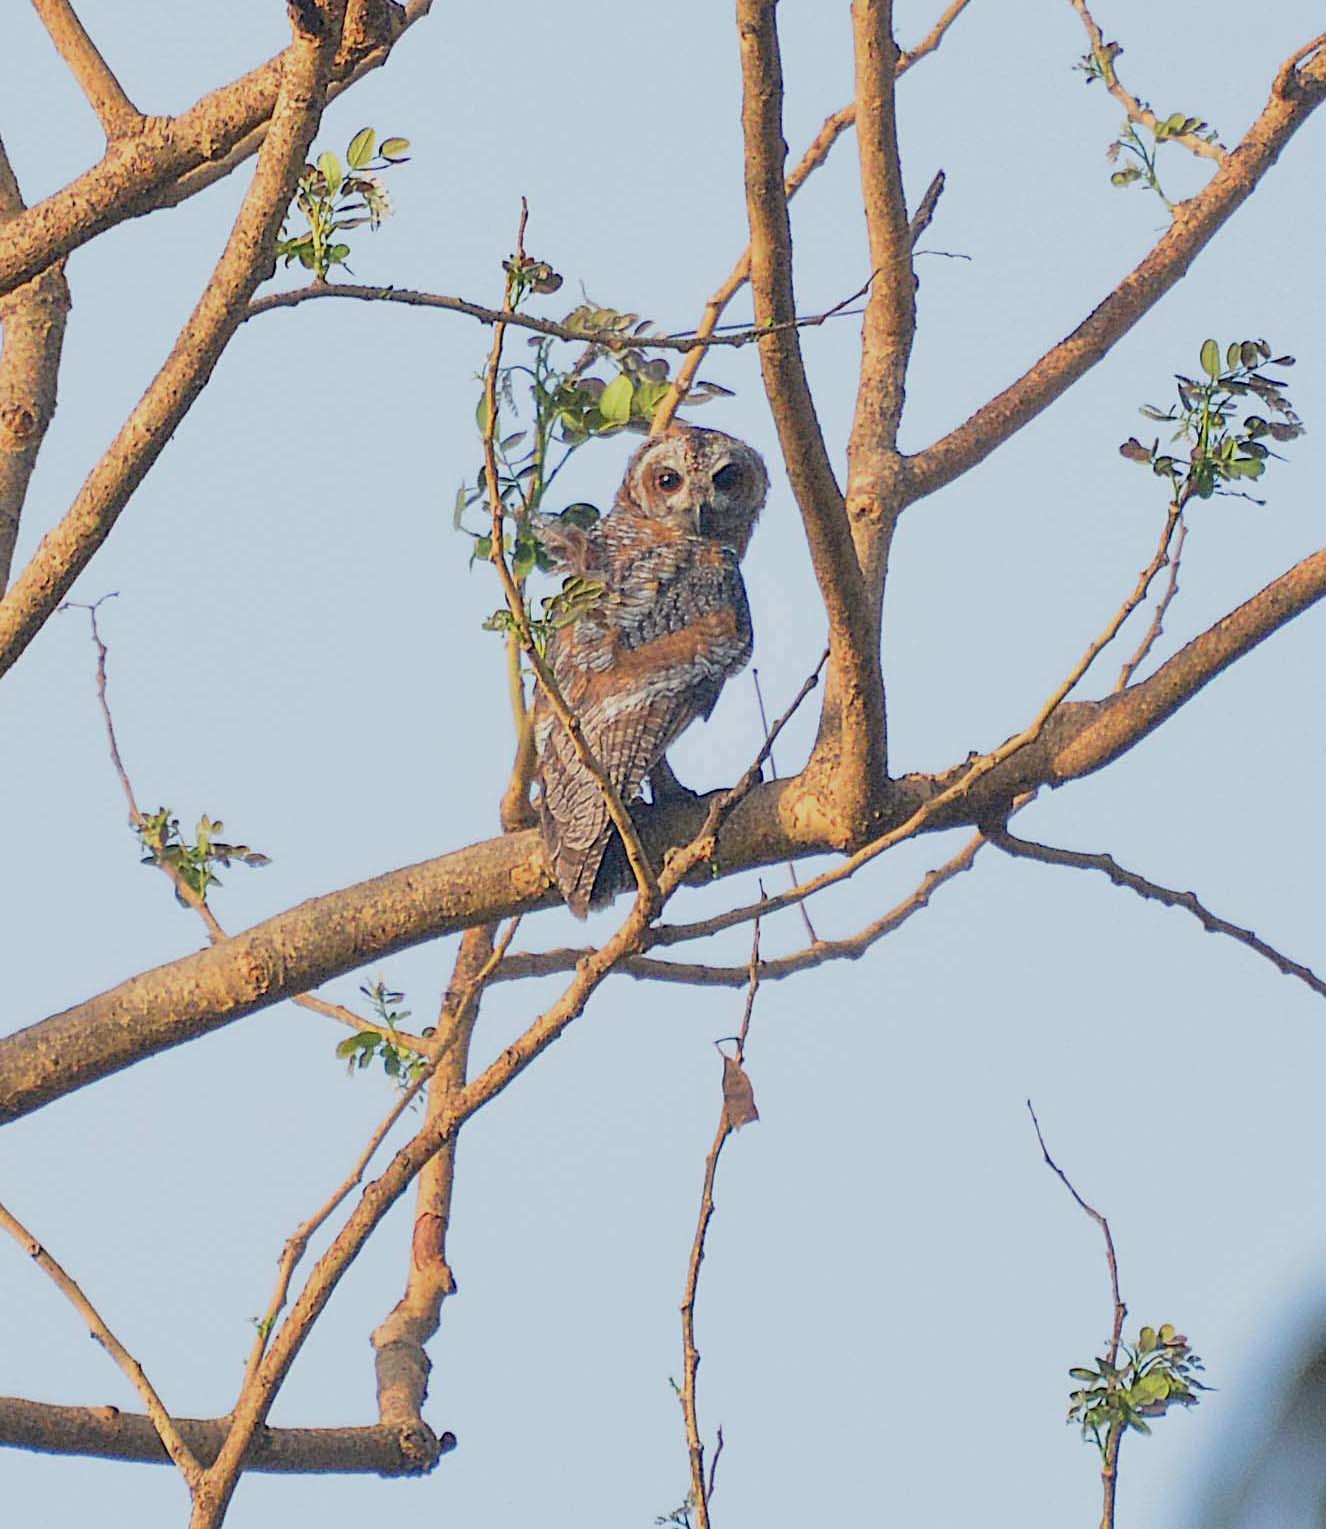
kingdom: Animalia
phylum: Chordata
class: Aves
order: Strigiformes
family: Strigidae
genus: Strix
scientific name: Strix ocellata
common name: Mottled wood owl
